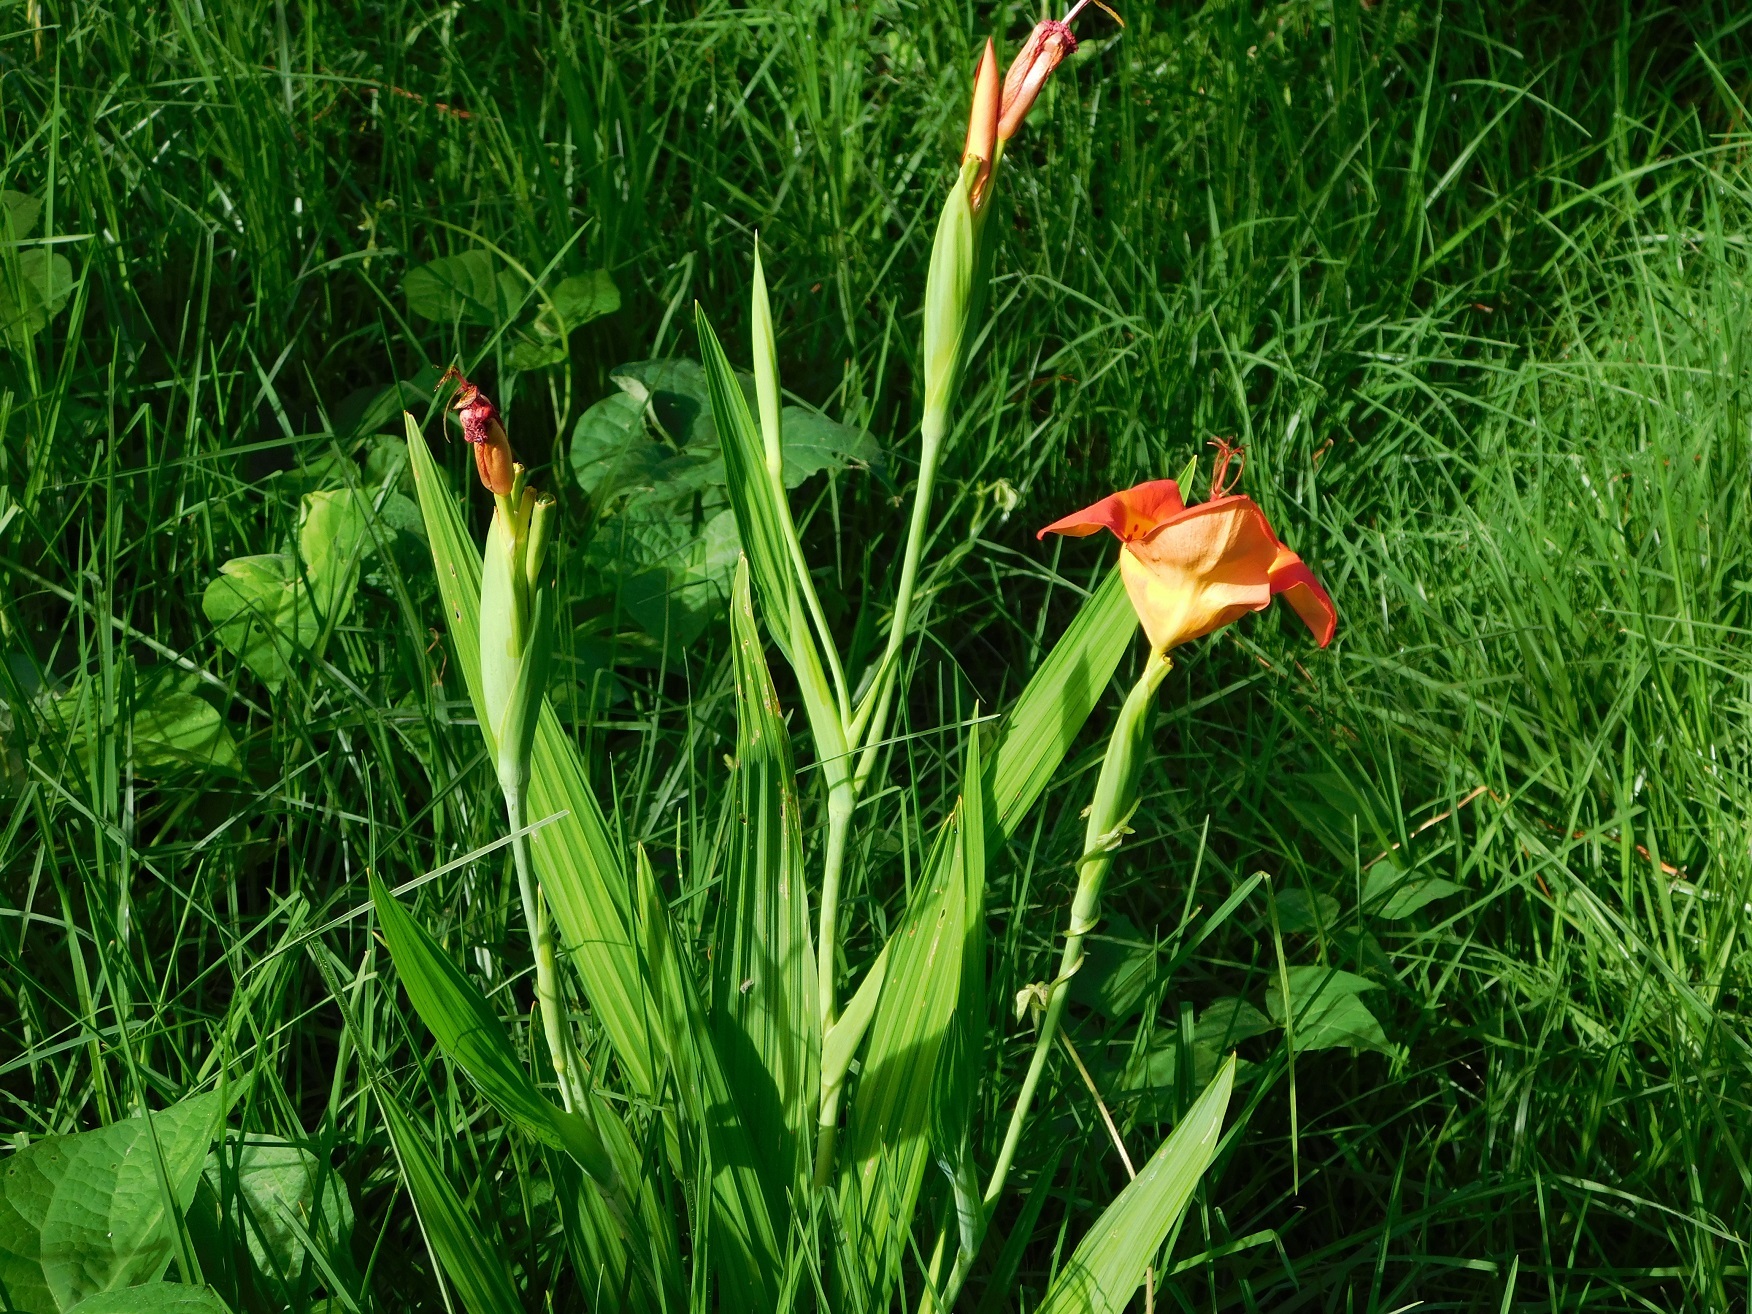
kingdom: Plantae
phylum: Tracheophyta
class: Liliopsida
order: Asparagales
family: Iridaceae
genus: Tigridia
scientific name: Tigridia pavonia
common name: Peacock-flower
